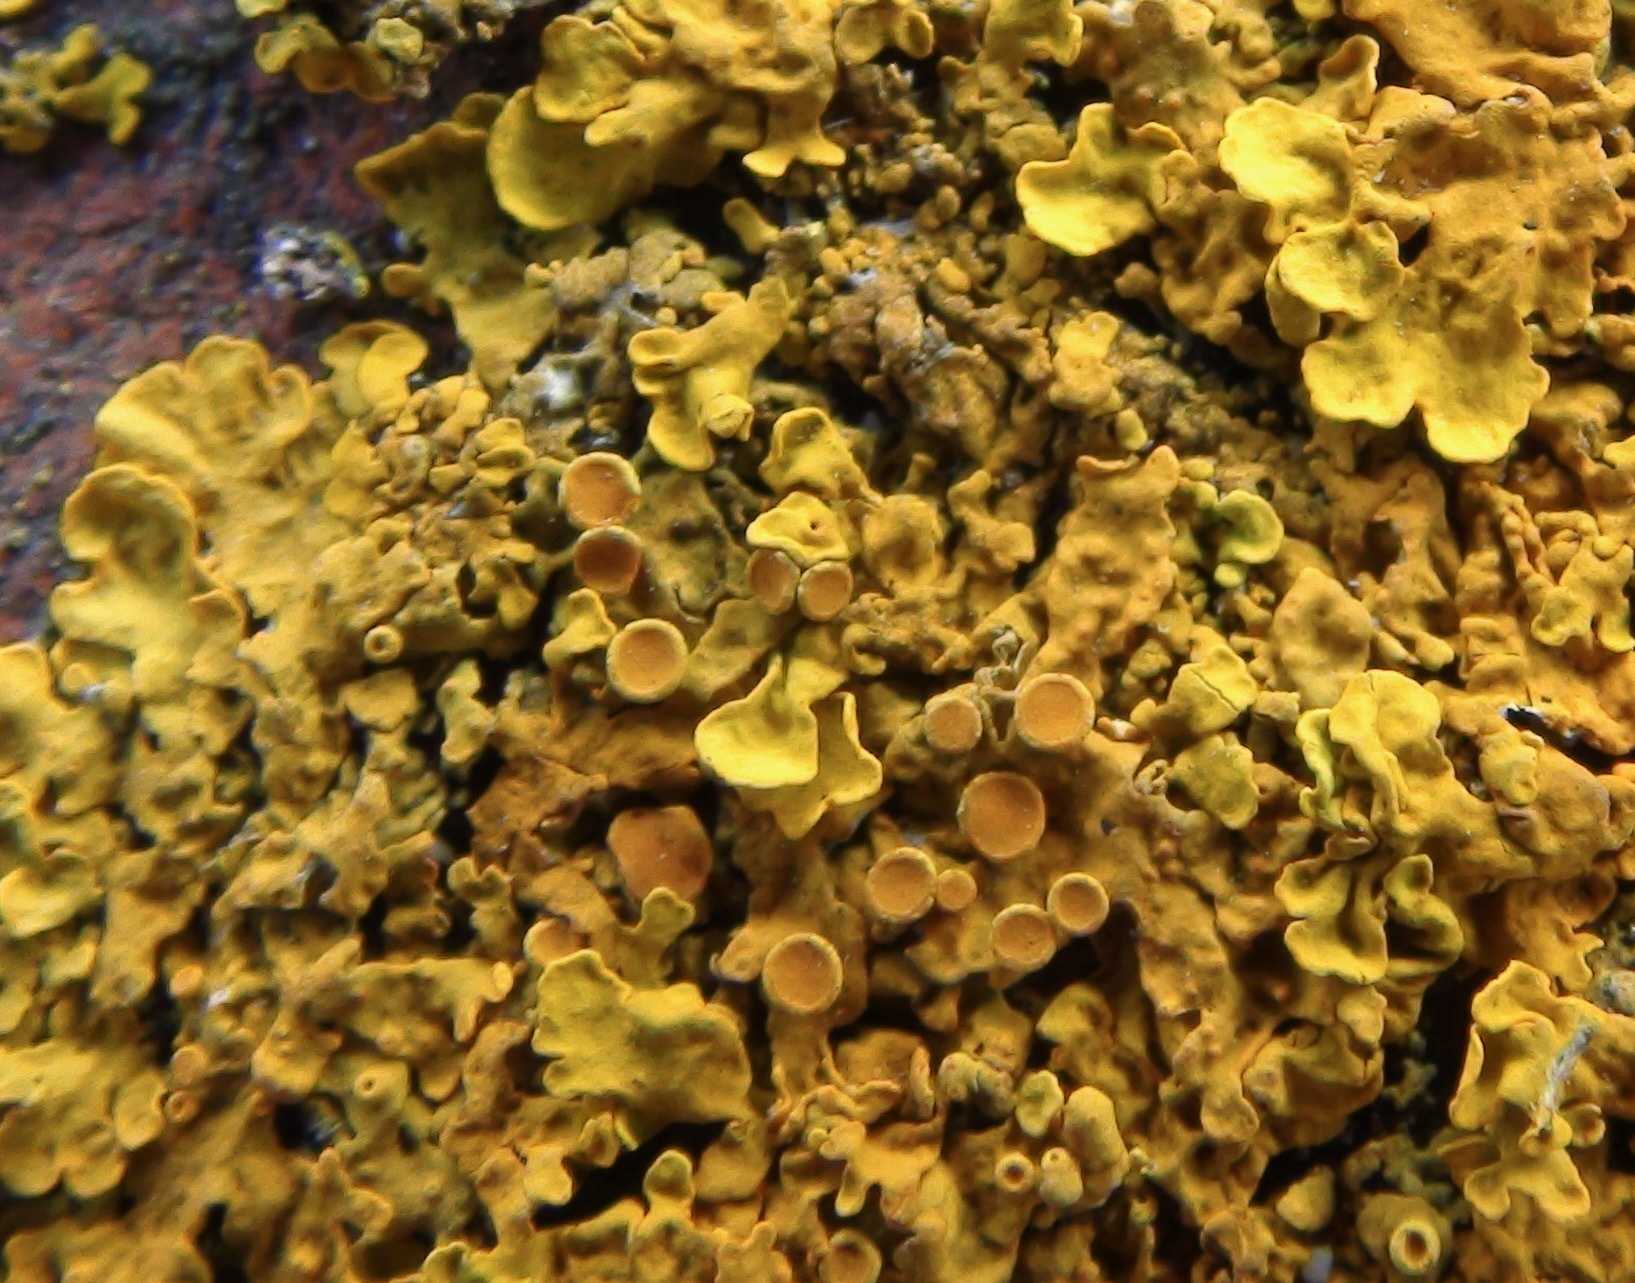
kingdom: Fungi
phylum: Ascomycota
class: Lecanoromycetes
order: Teloschistales
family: Teloschistaceae
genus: Xanthoria
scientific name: Xanthoria parietina
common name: Common orange lichen
